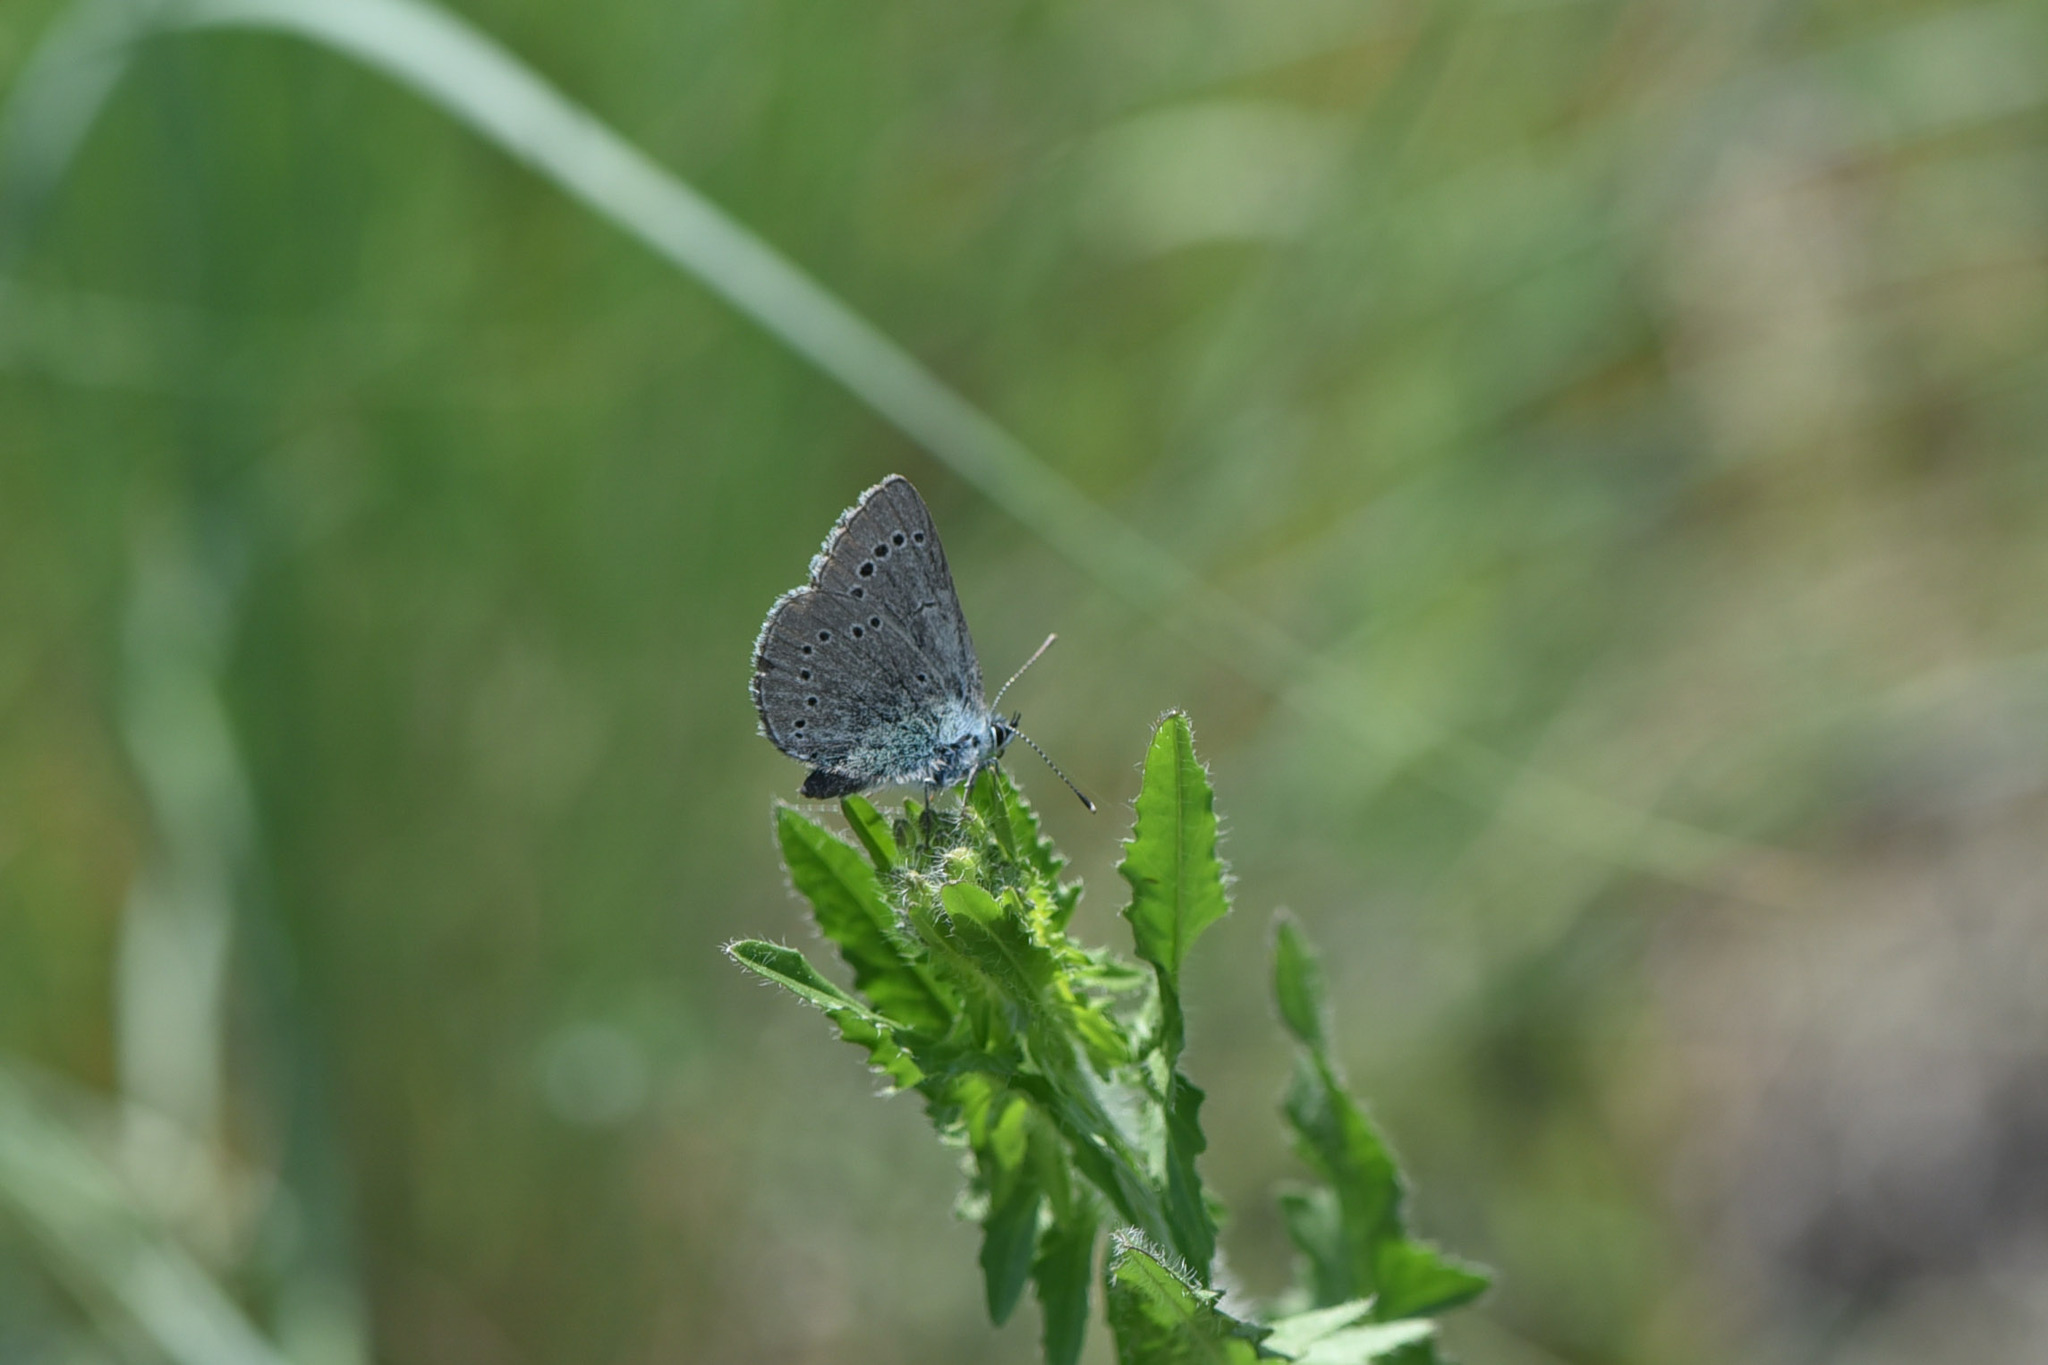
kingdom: Animalia
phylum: Arthropoda
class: Insecta
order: Lepidoptera
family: Lycaenidae
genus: Glaucopsyche
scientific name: Glaucopsyche lygdamus
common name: Silvery blue
